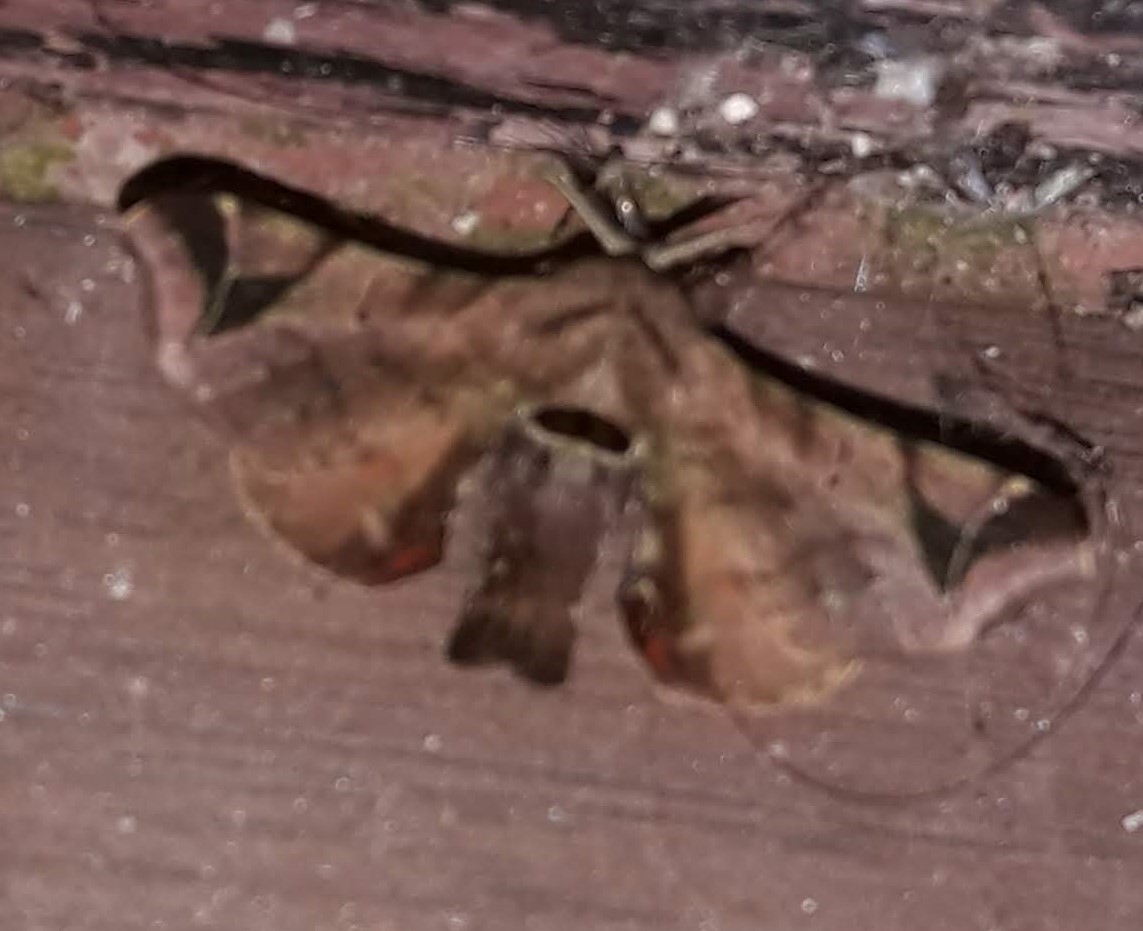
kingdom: Animalia
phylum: Arthropoda
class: Insecta
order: Lepidoptera
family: Bombycidae
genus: Quentalia
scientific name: Quentalia numalia
